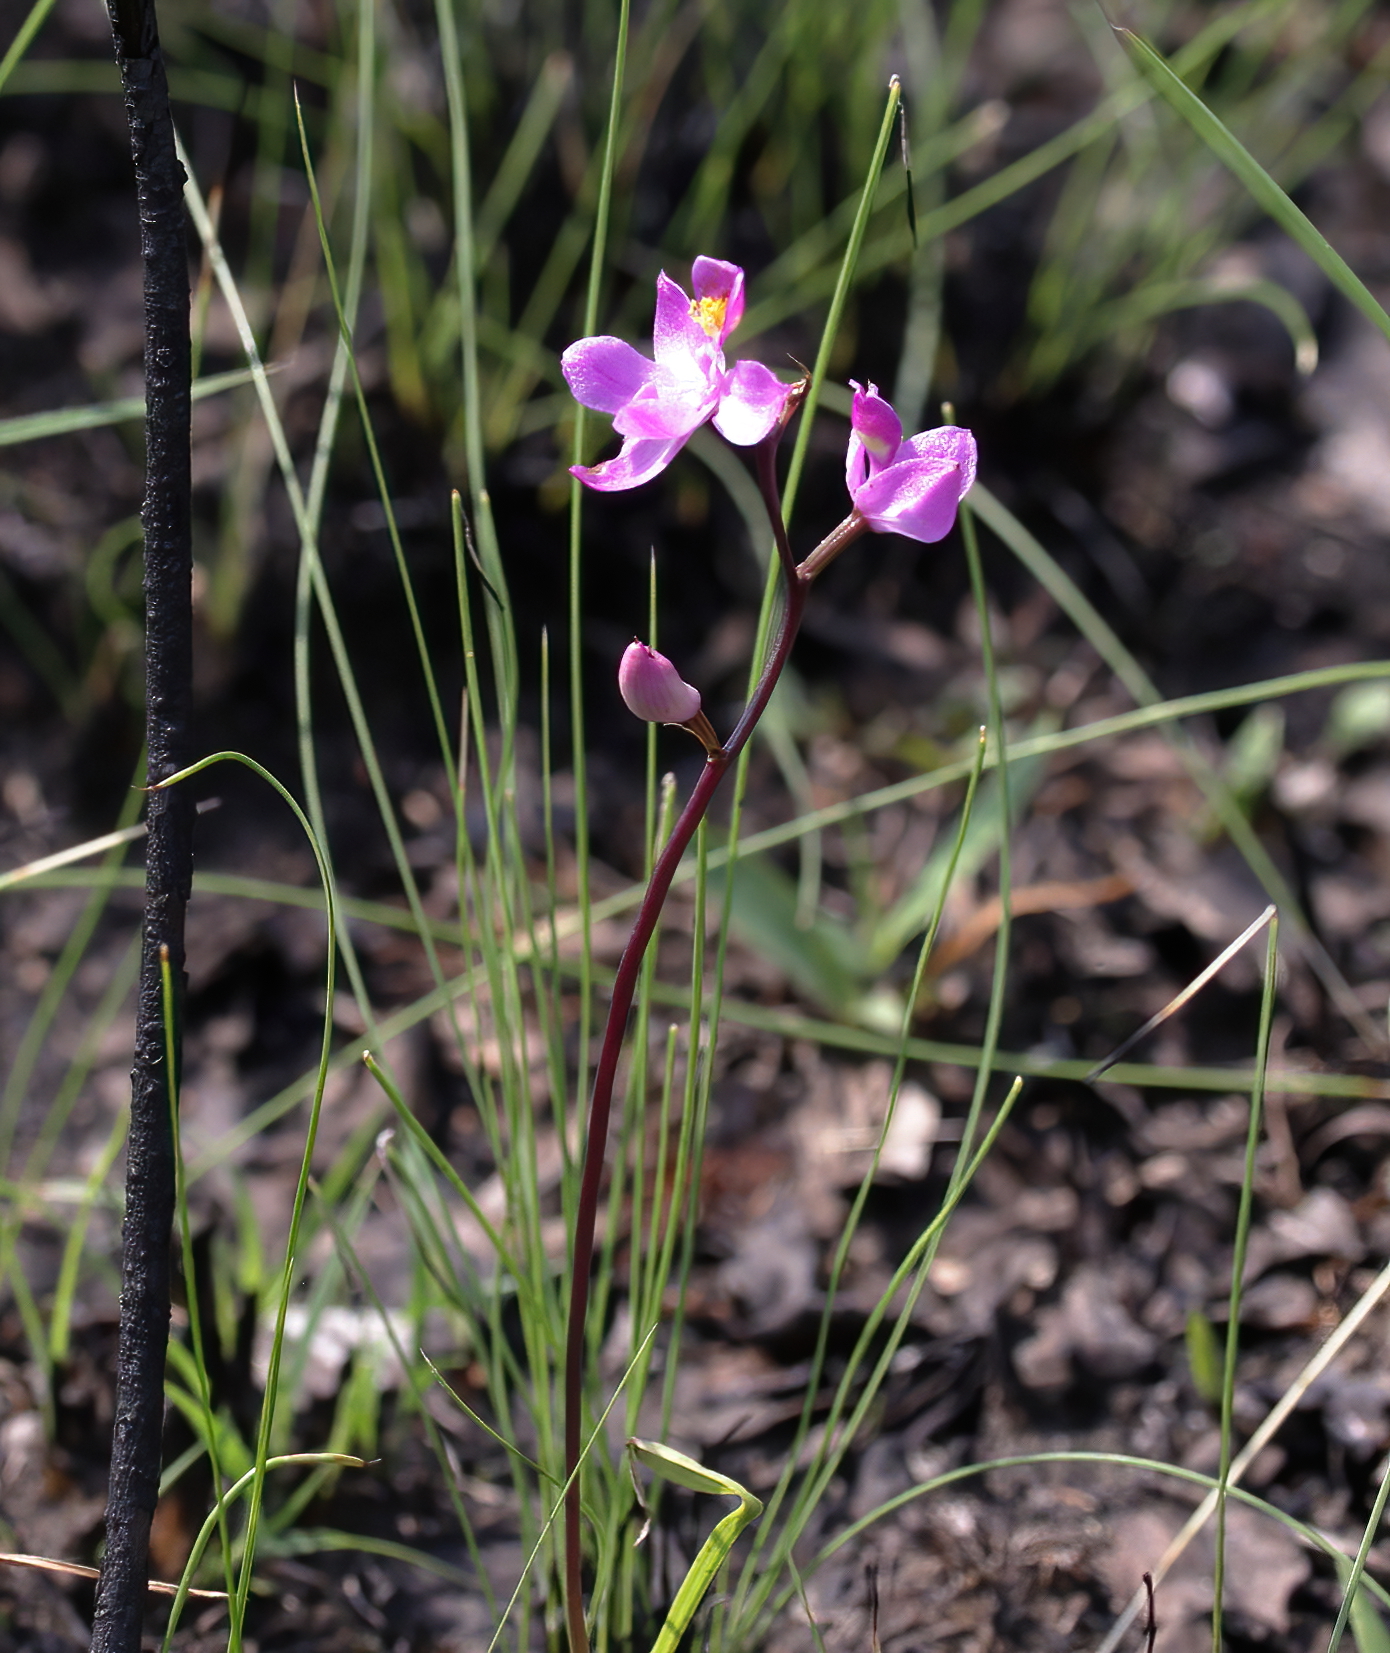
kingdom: Plantae
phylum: Tracheophyta
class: Liliopsida
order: Asparagales
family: Orchidaceae
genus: Calopogon
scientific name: Calopogon multiflorus
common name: Many-flowered grass-pink orchid
